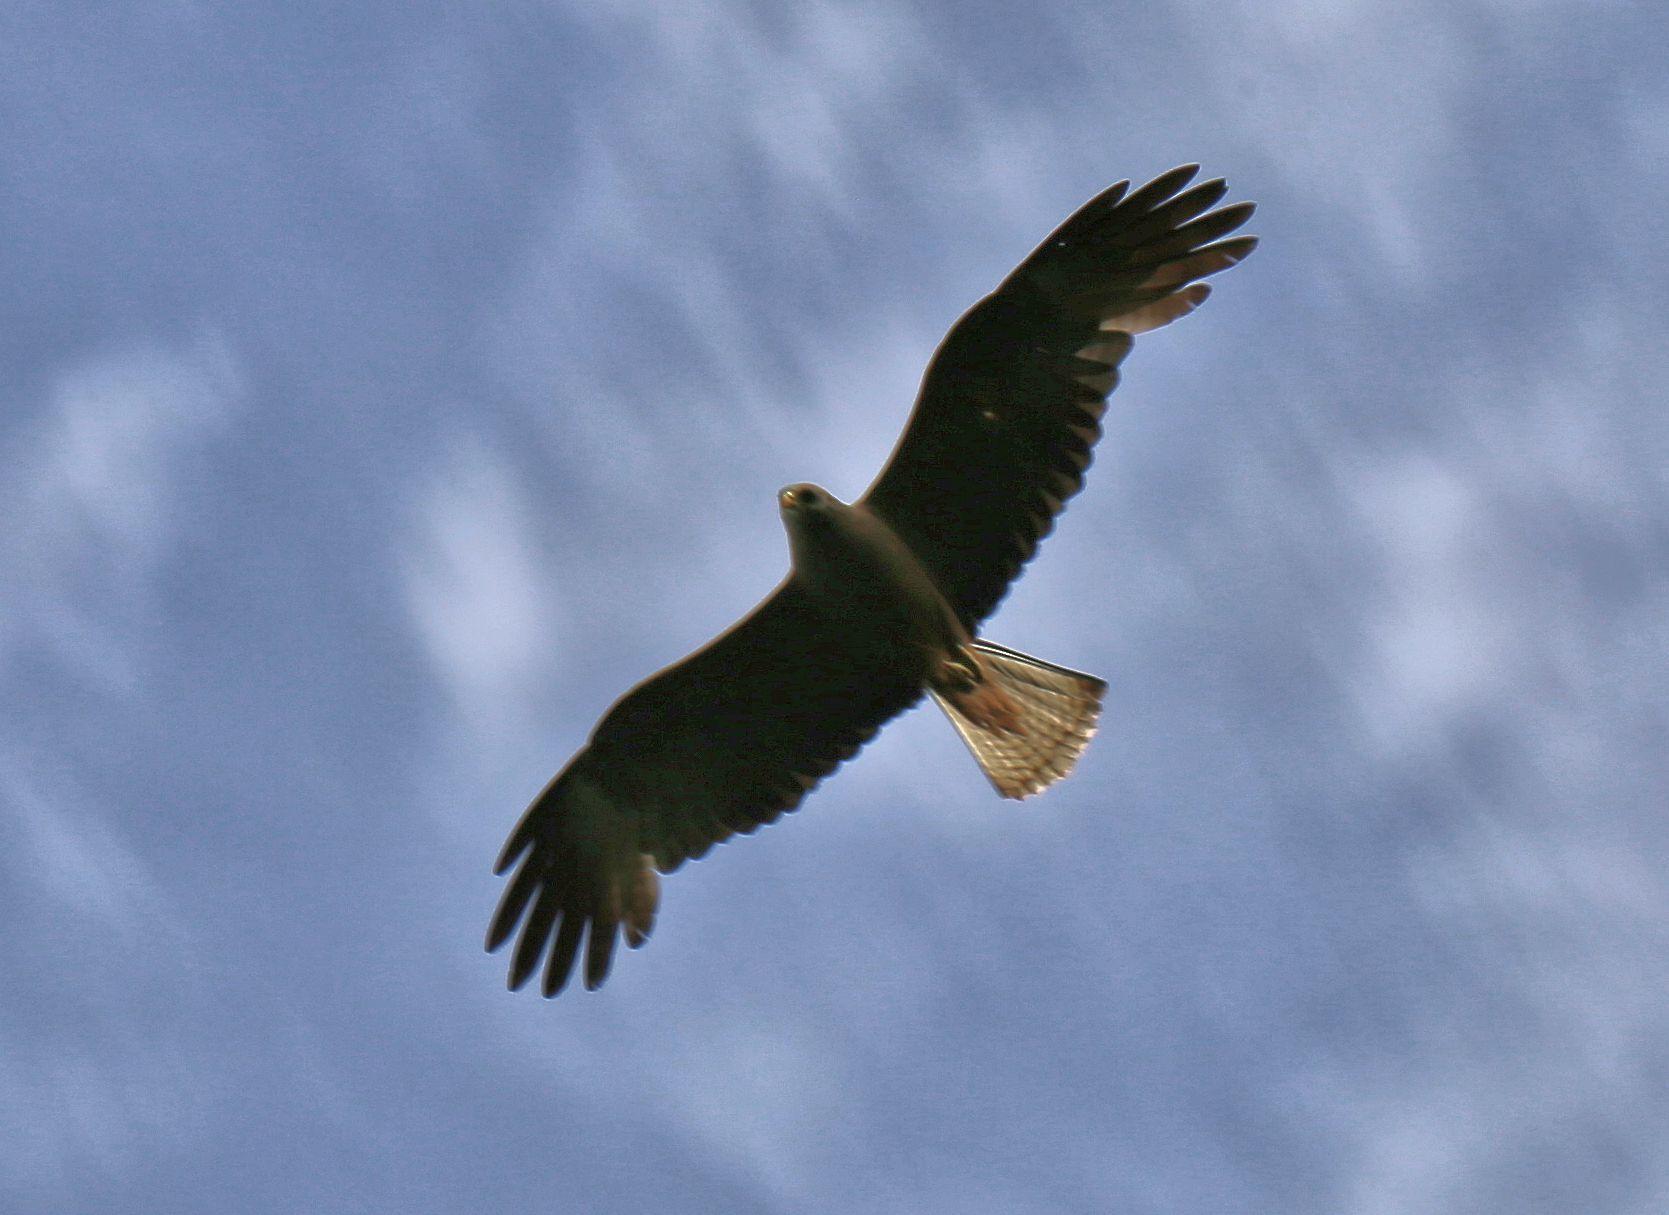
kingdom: Animalia
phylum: Chordata
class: Aves
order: Accipitriformes
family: Accipitridae
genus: Milvus
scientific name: Milvus migrans
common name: Black kite
